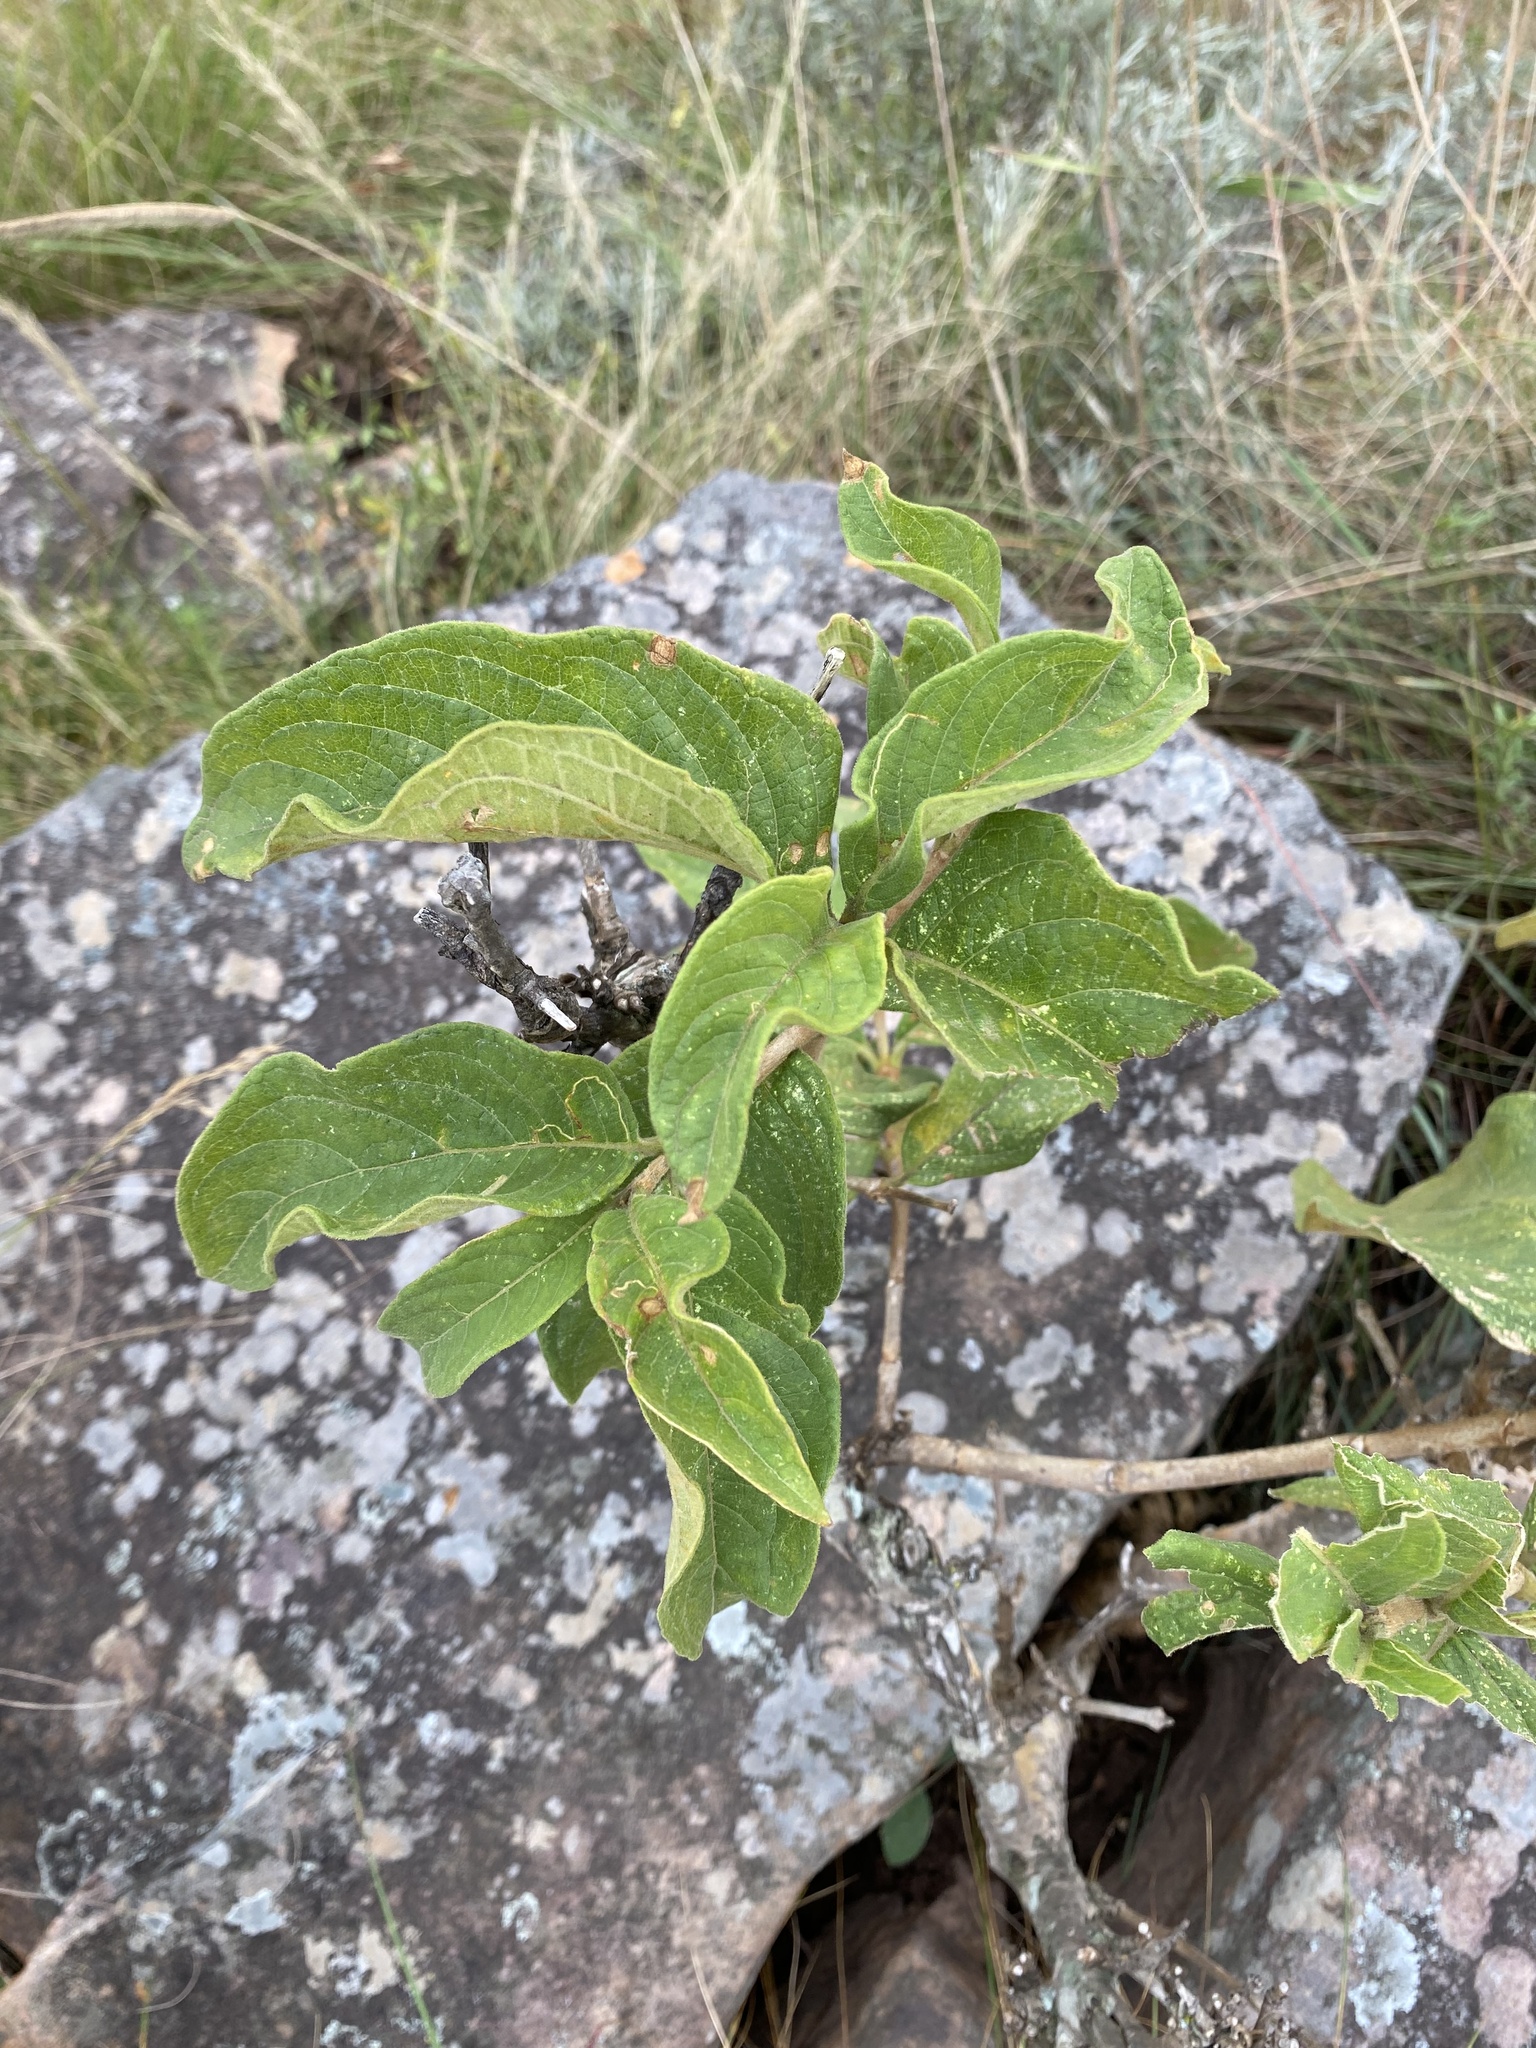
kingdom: Plantae
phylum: Tracheophyta
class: Magnoliopsida
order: Gentianales
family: Rubiaceae
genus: Vangueria
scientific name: Vangueria infausta
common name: Medlar
